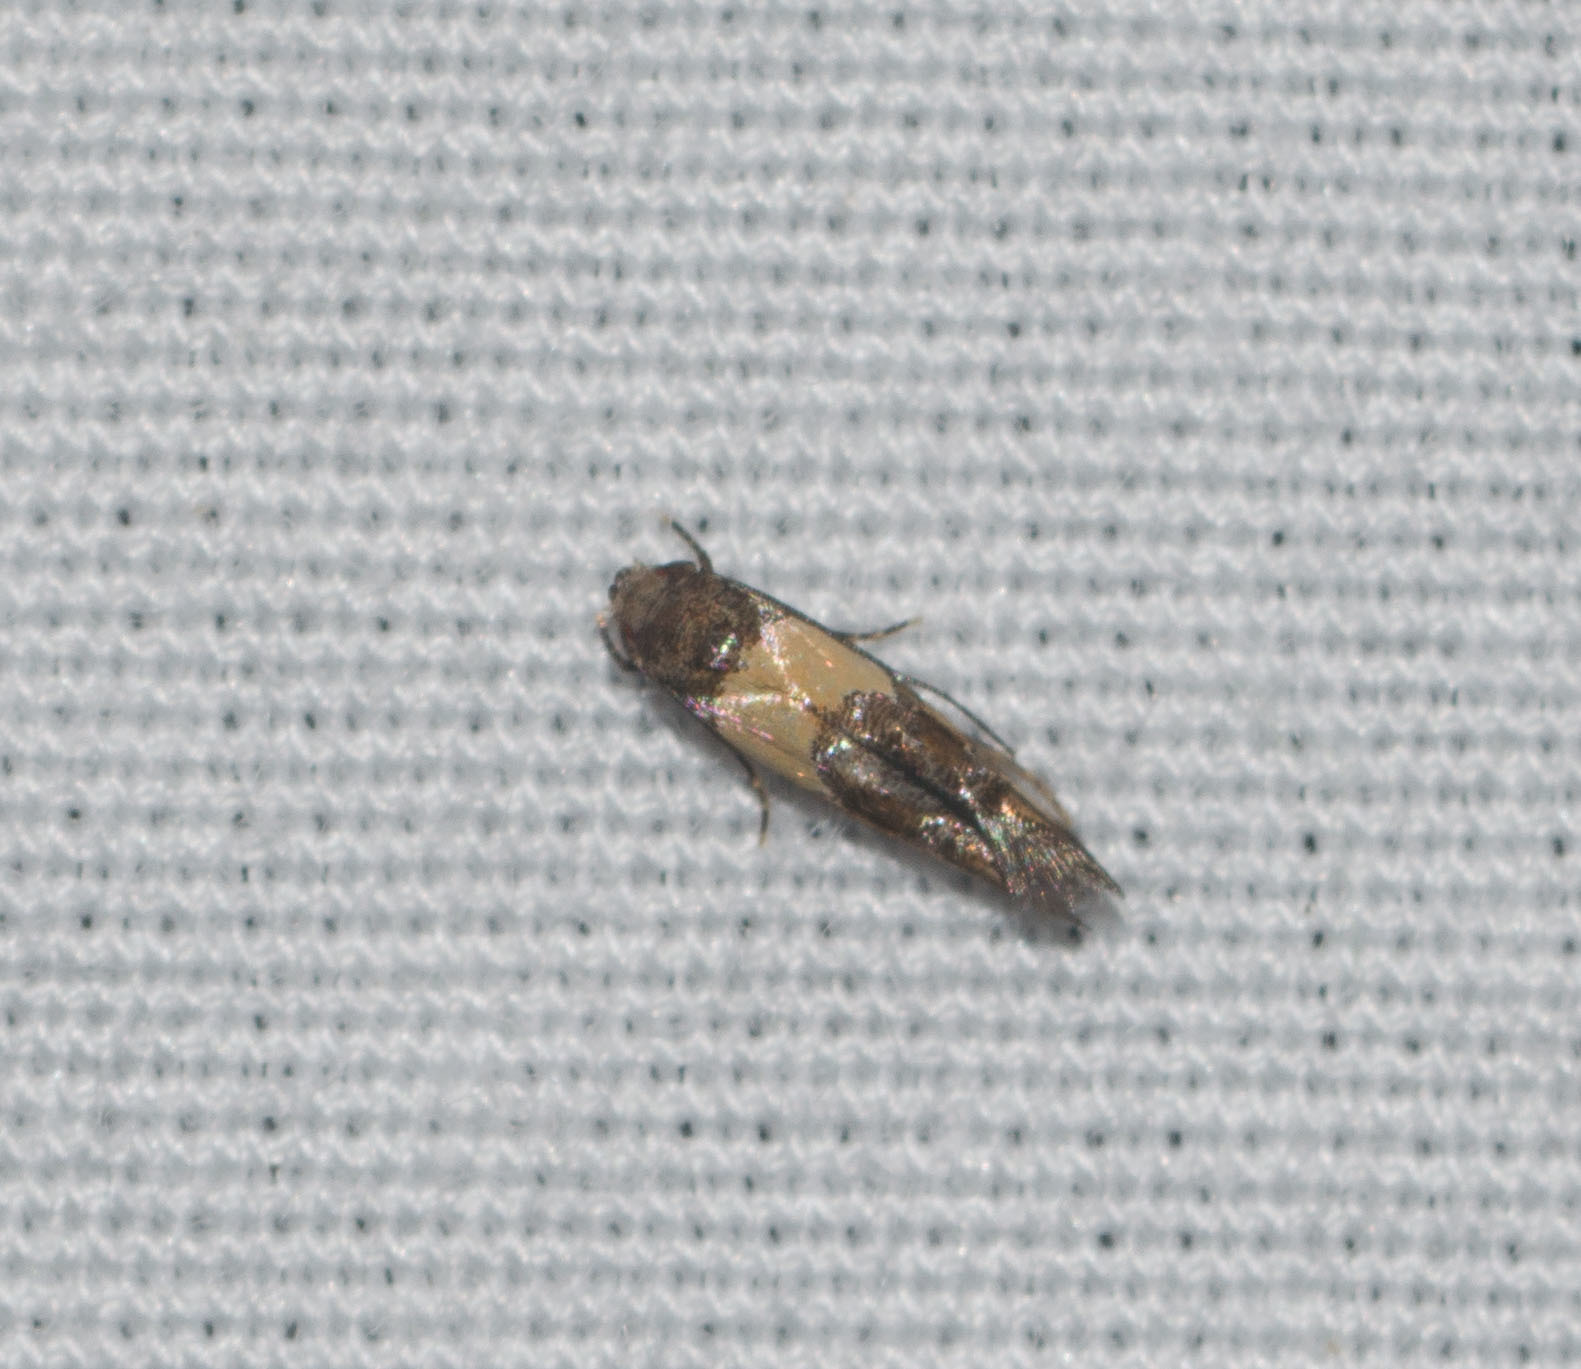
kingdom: Animalia
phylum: Arthropoda
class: Insecta
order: Lepidoptera
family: Momphidae
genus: Mompha
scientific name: Mompha trithalama
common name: Moth
